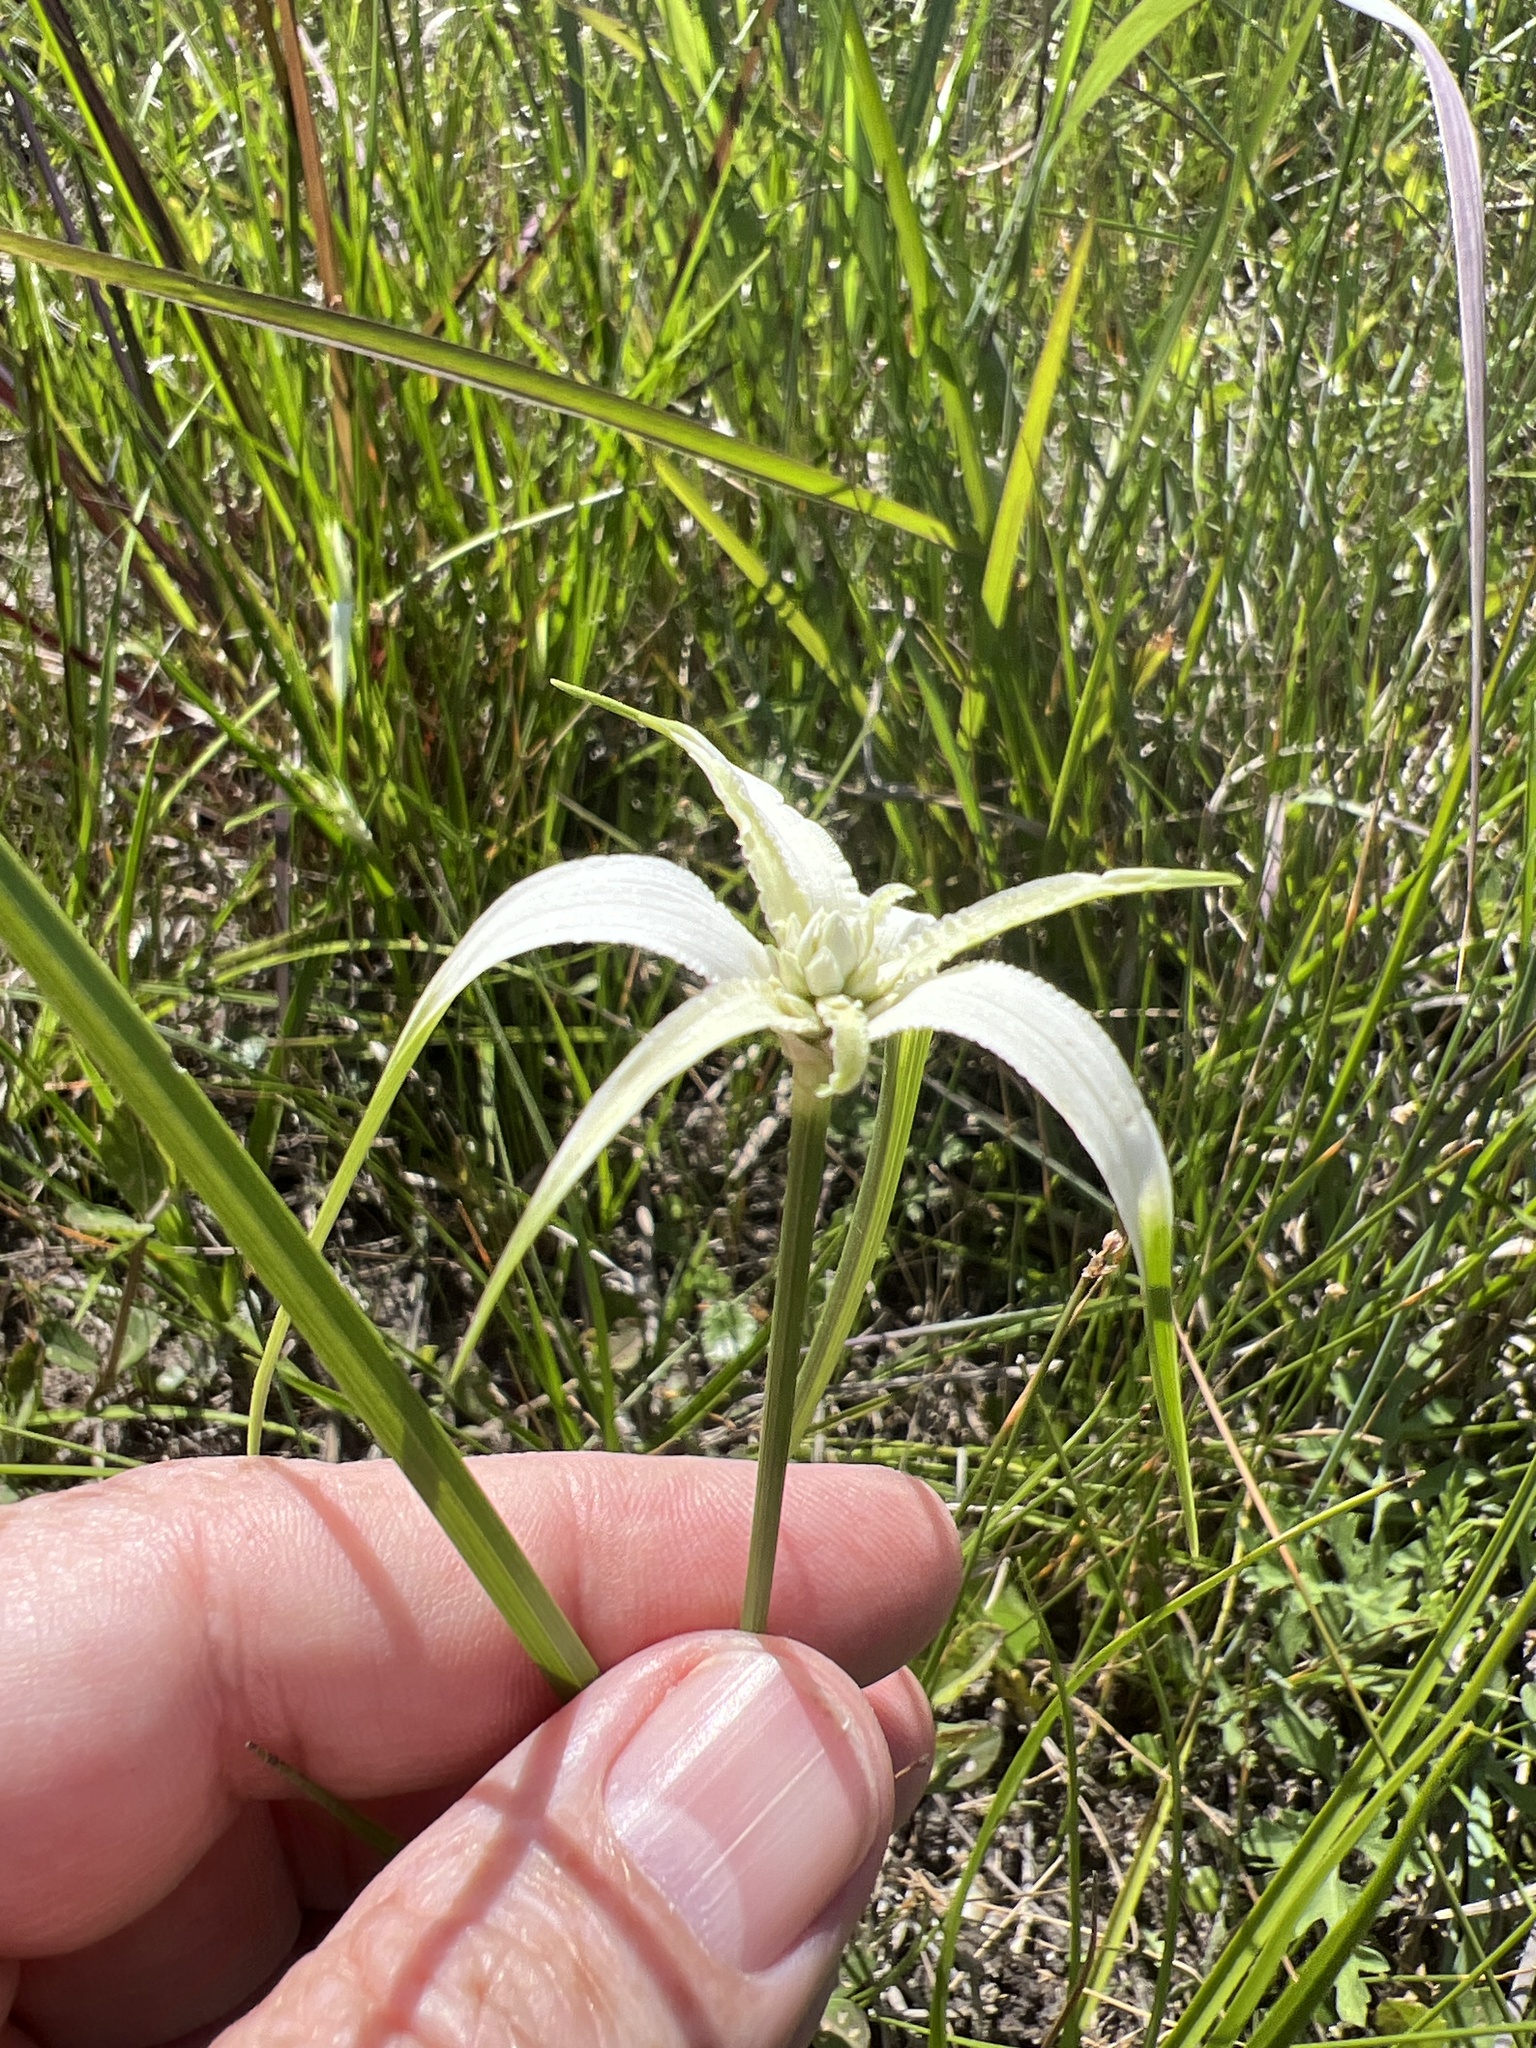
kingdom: Plantae
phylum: Tracheophyta
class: Liliopsida
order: Poales
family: Cyperaceae
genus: Rhynchospora
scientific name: Rhynchospora colorata
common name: Star sedge
